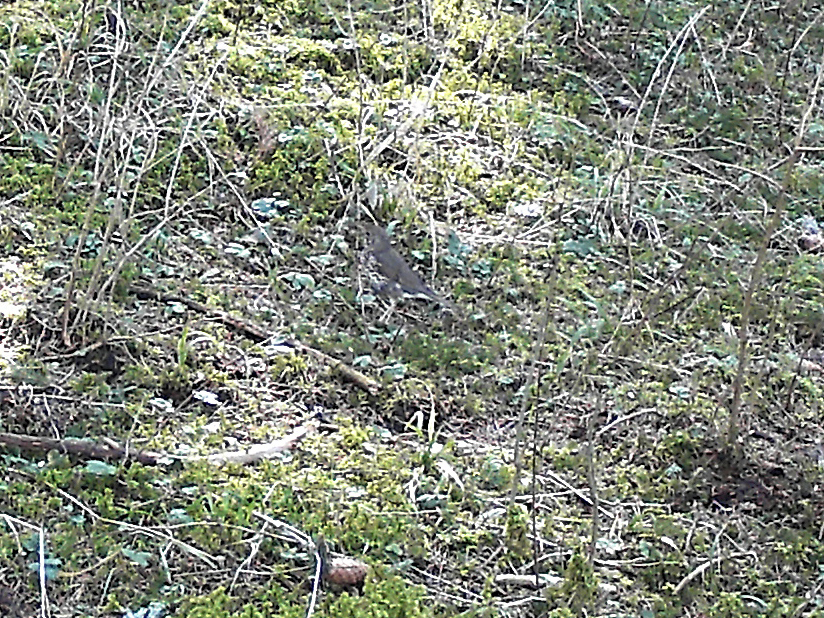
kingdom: Animalia
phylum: Chordata
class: Aves
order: Passeriformes
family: Turdidae
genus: Turdus
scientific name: Turdus philomelos
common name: Song thrush
